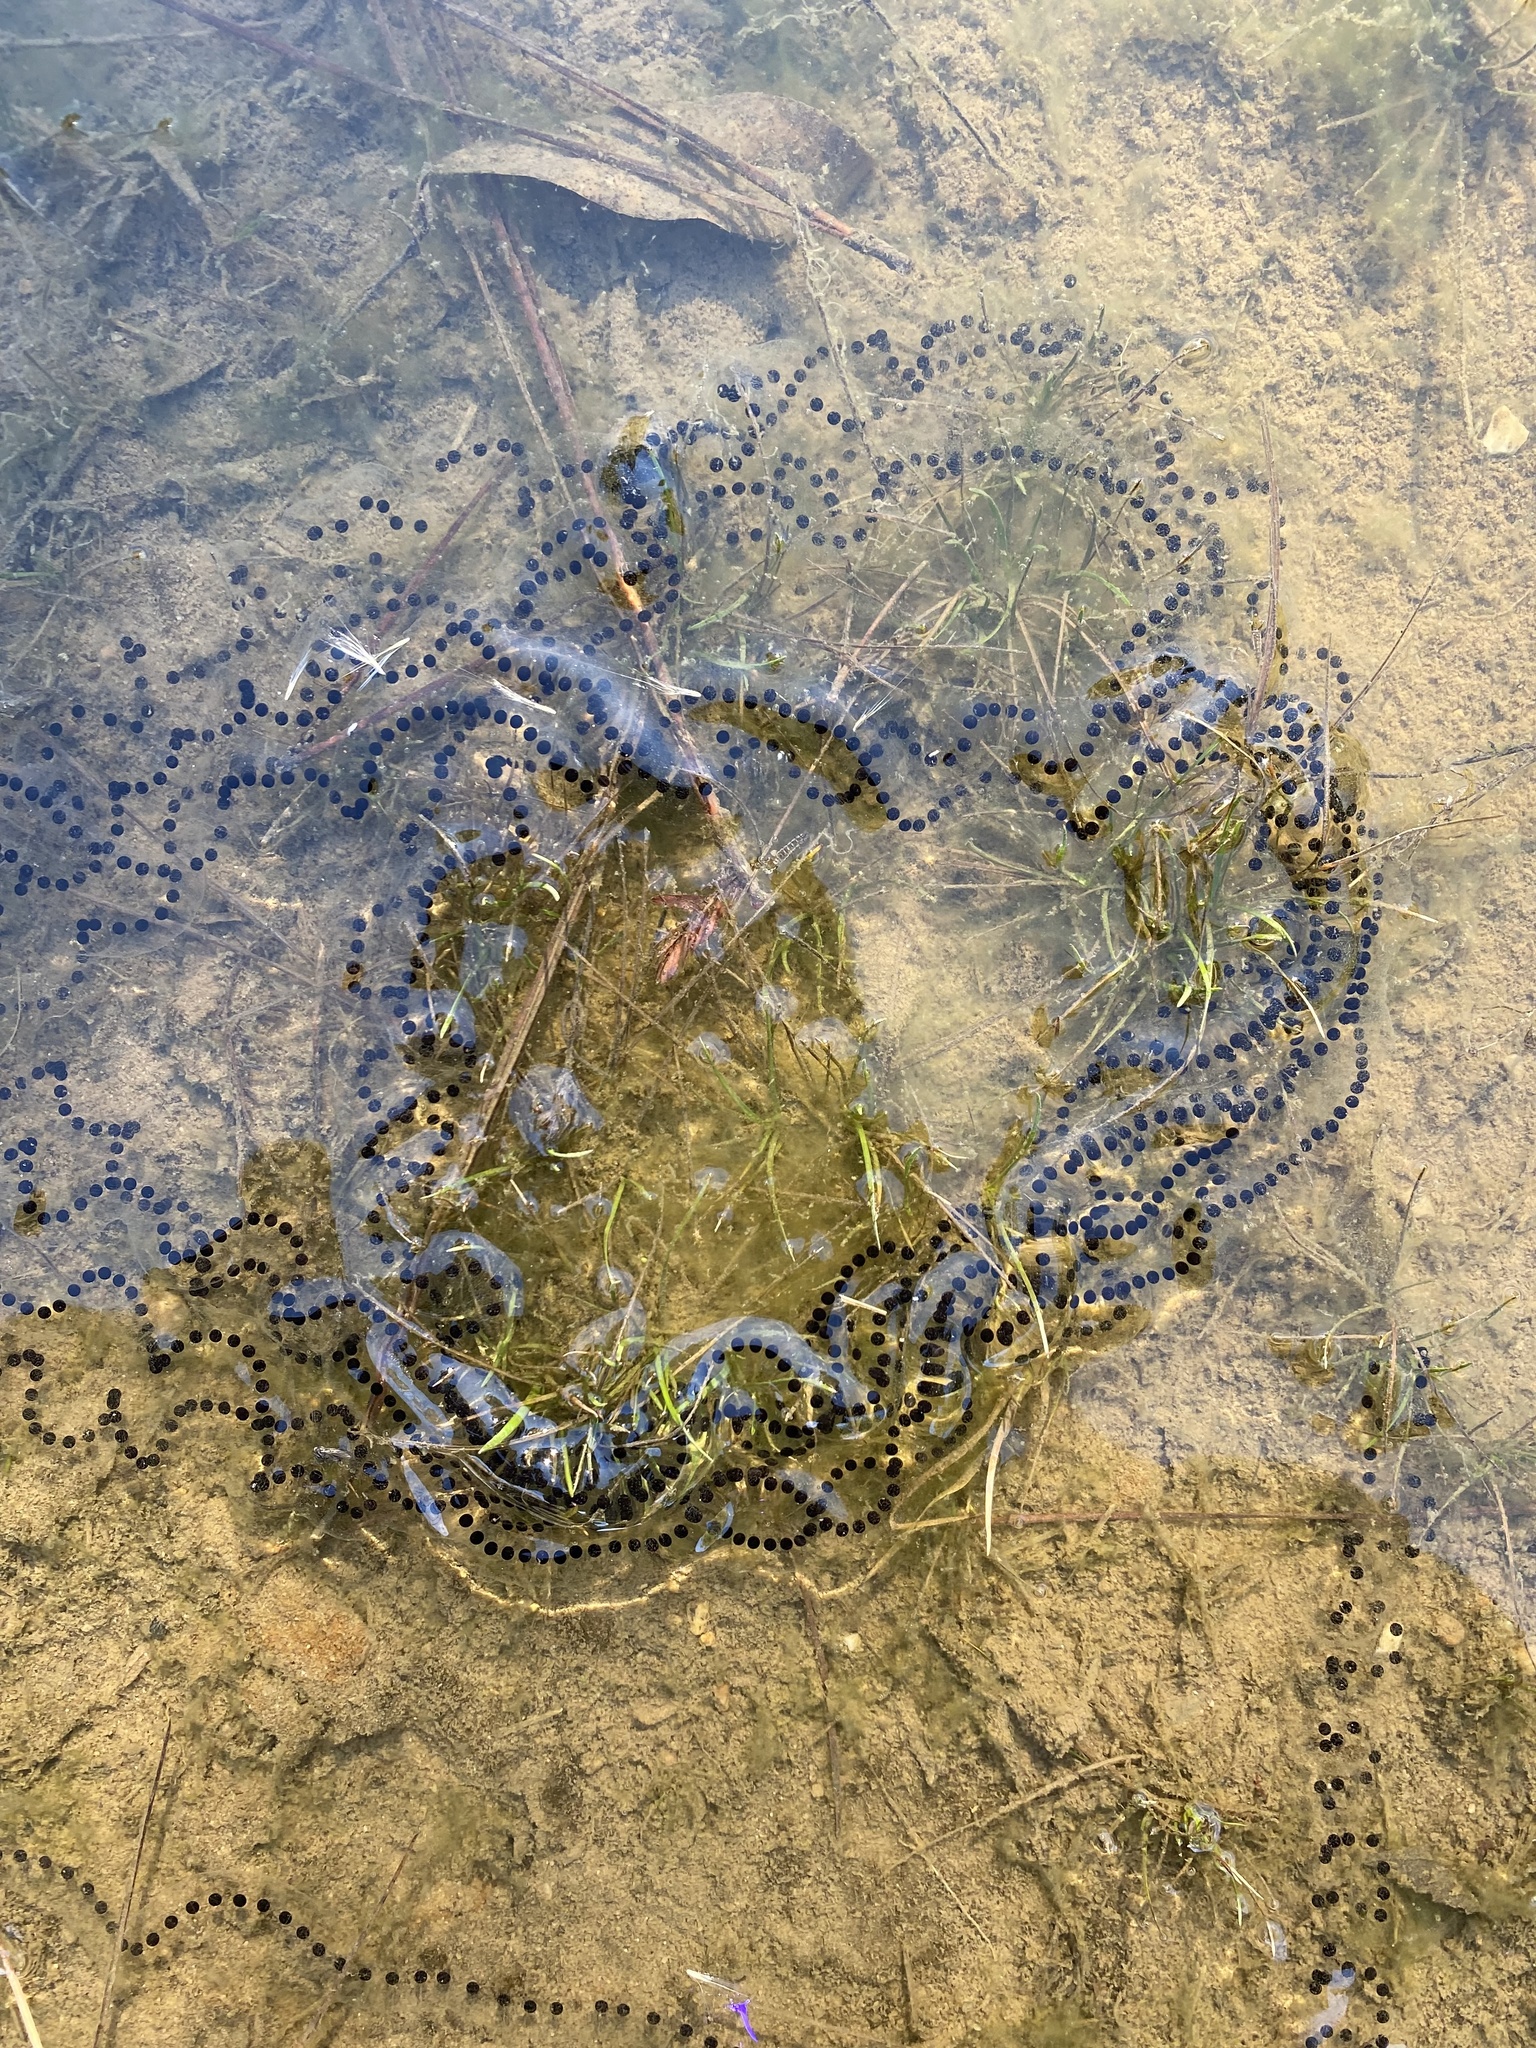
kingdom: Animalia
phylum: Chordata
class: Amphibia
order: Anura
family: Bufonidae
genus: Anaxyrus
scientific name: Anaxyrus americanus
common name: American toad
